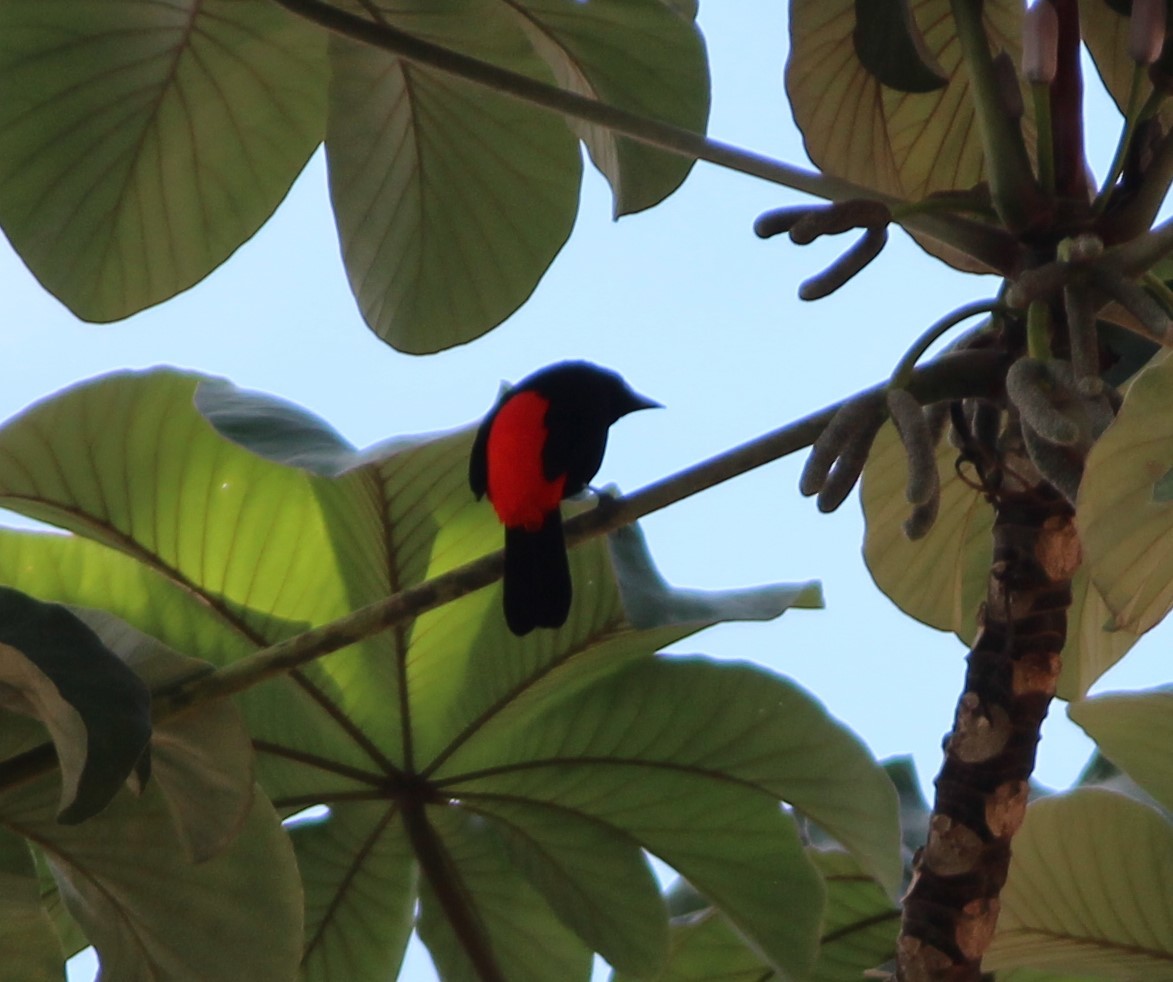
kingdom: Animalia
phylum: Chordata
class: Aves
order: Passeriformes
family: Thraupidae
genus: Ramphocelus
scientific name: Ramphocelus passerinii
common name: Passerini's tanager
